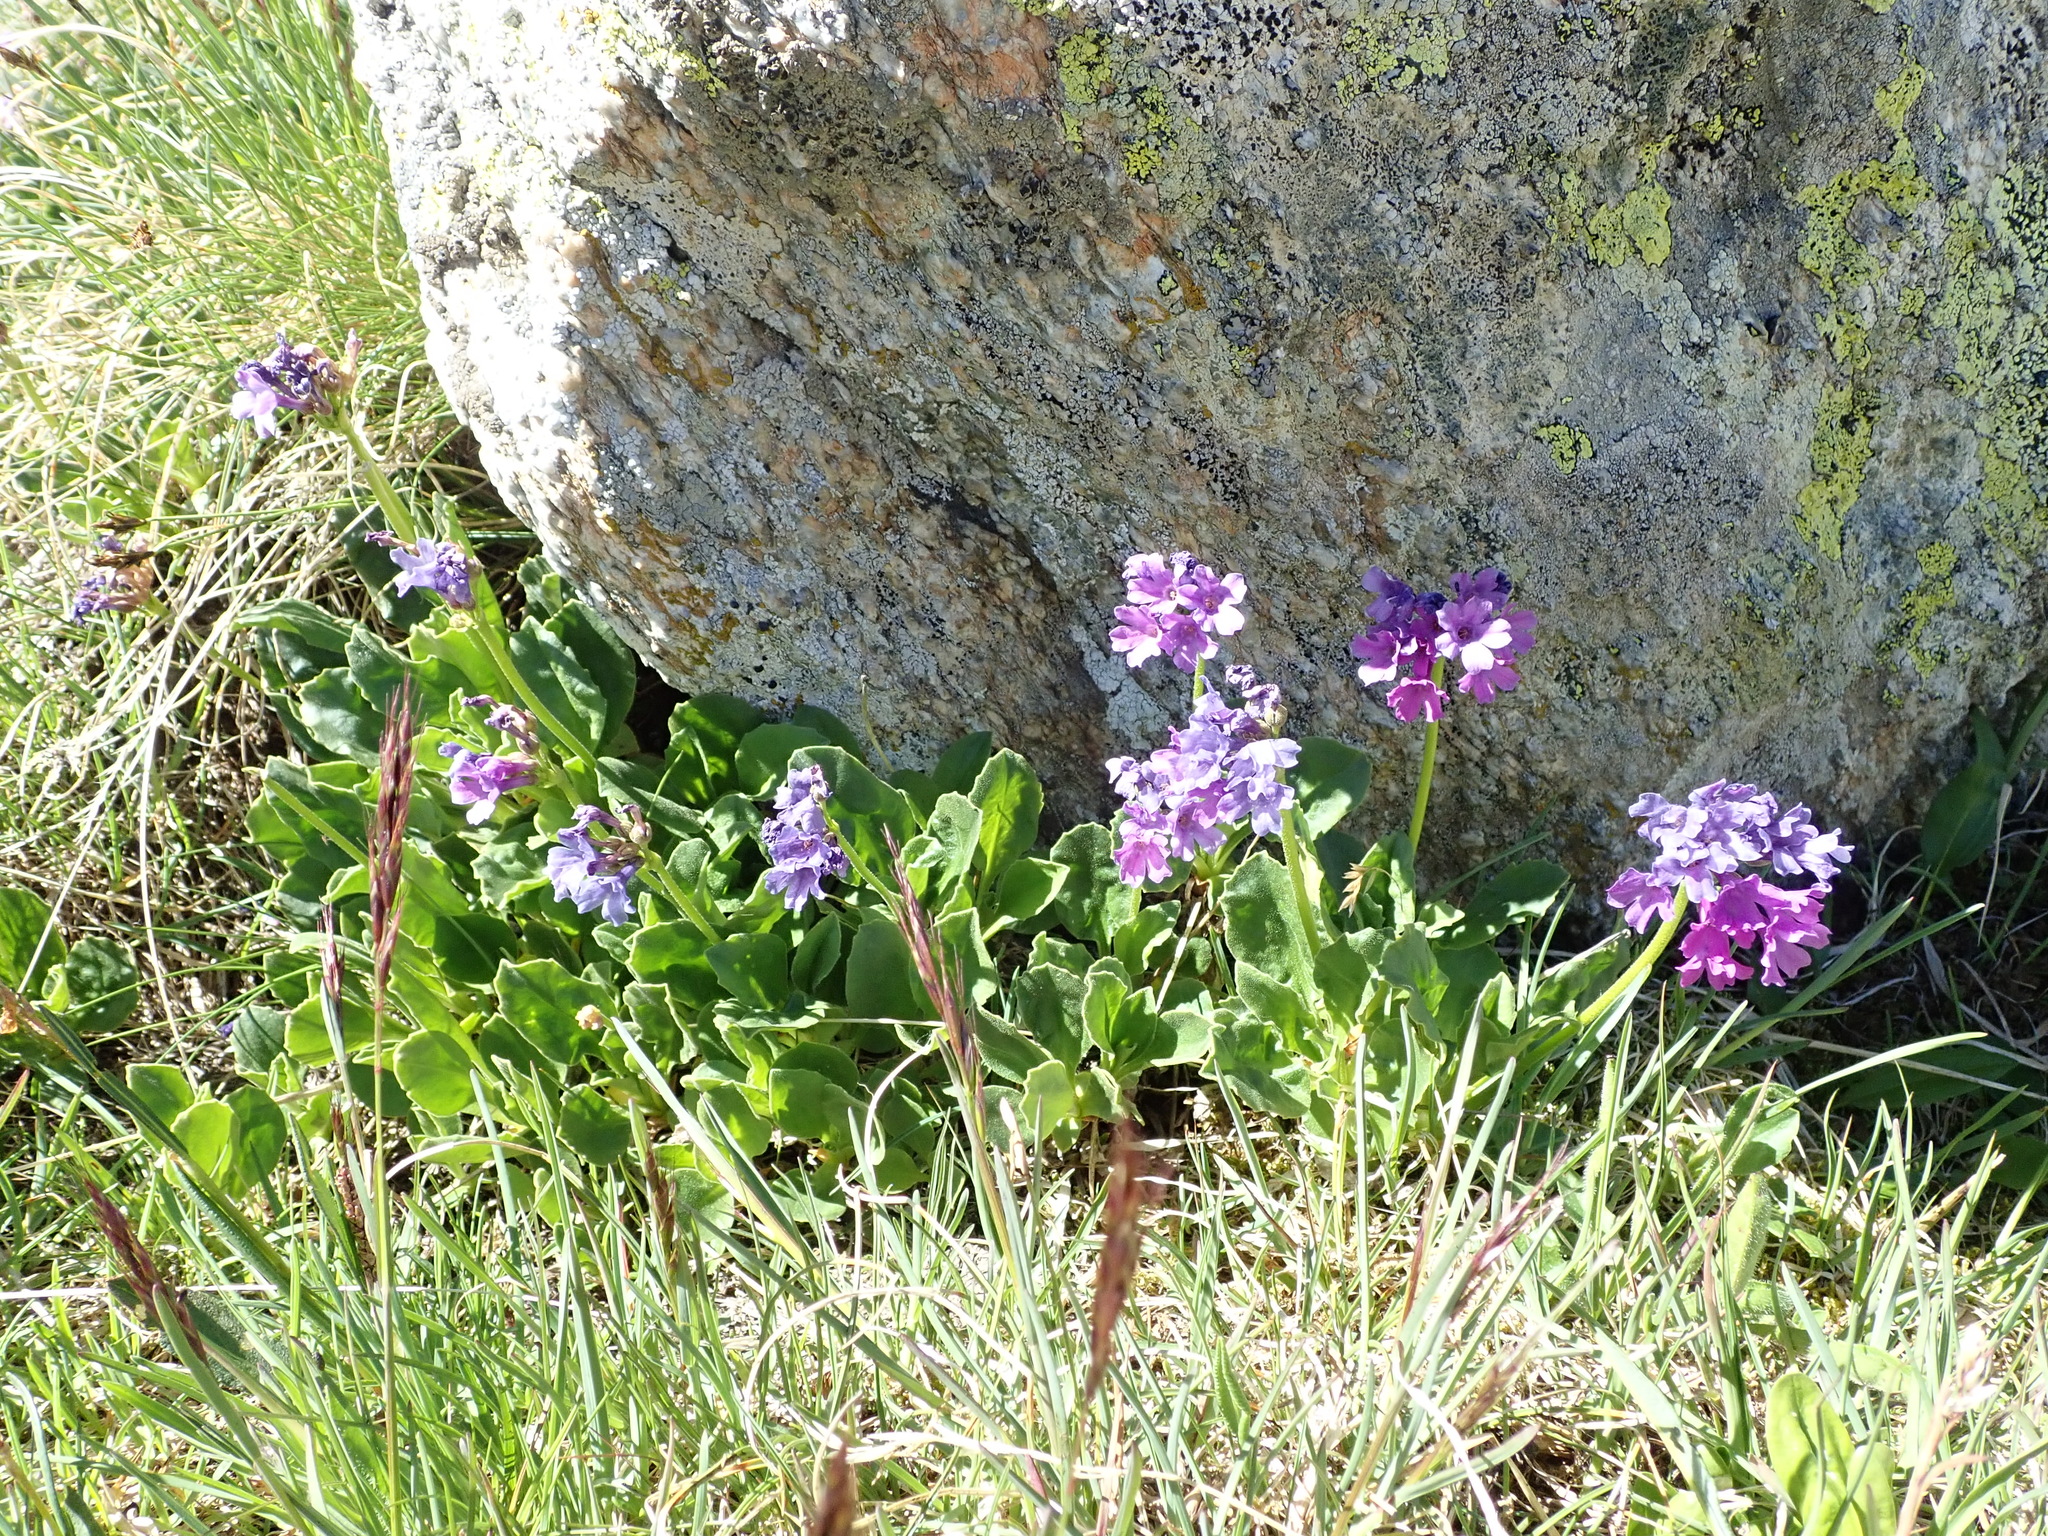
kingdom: Plantae
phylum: Tracheophyta
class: Magnoliopsida
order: Ericales
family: Primulaceae
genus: Primula
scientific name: Primula latifolia
